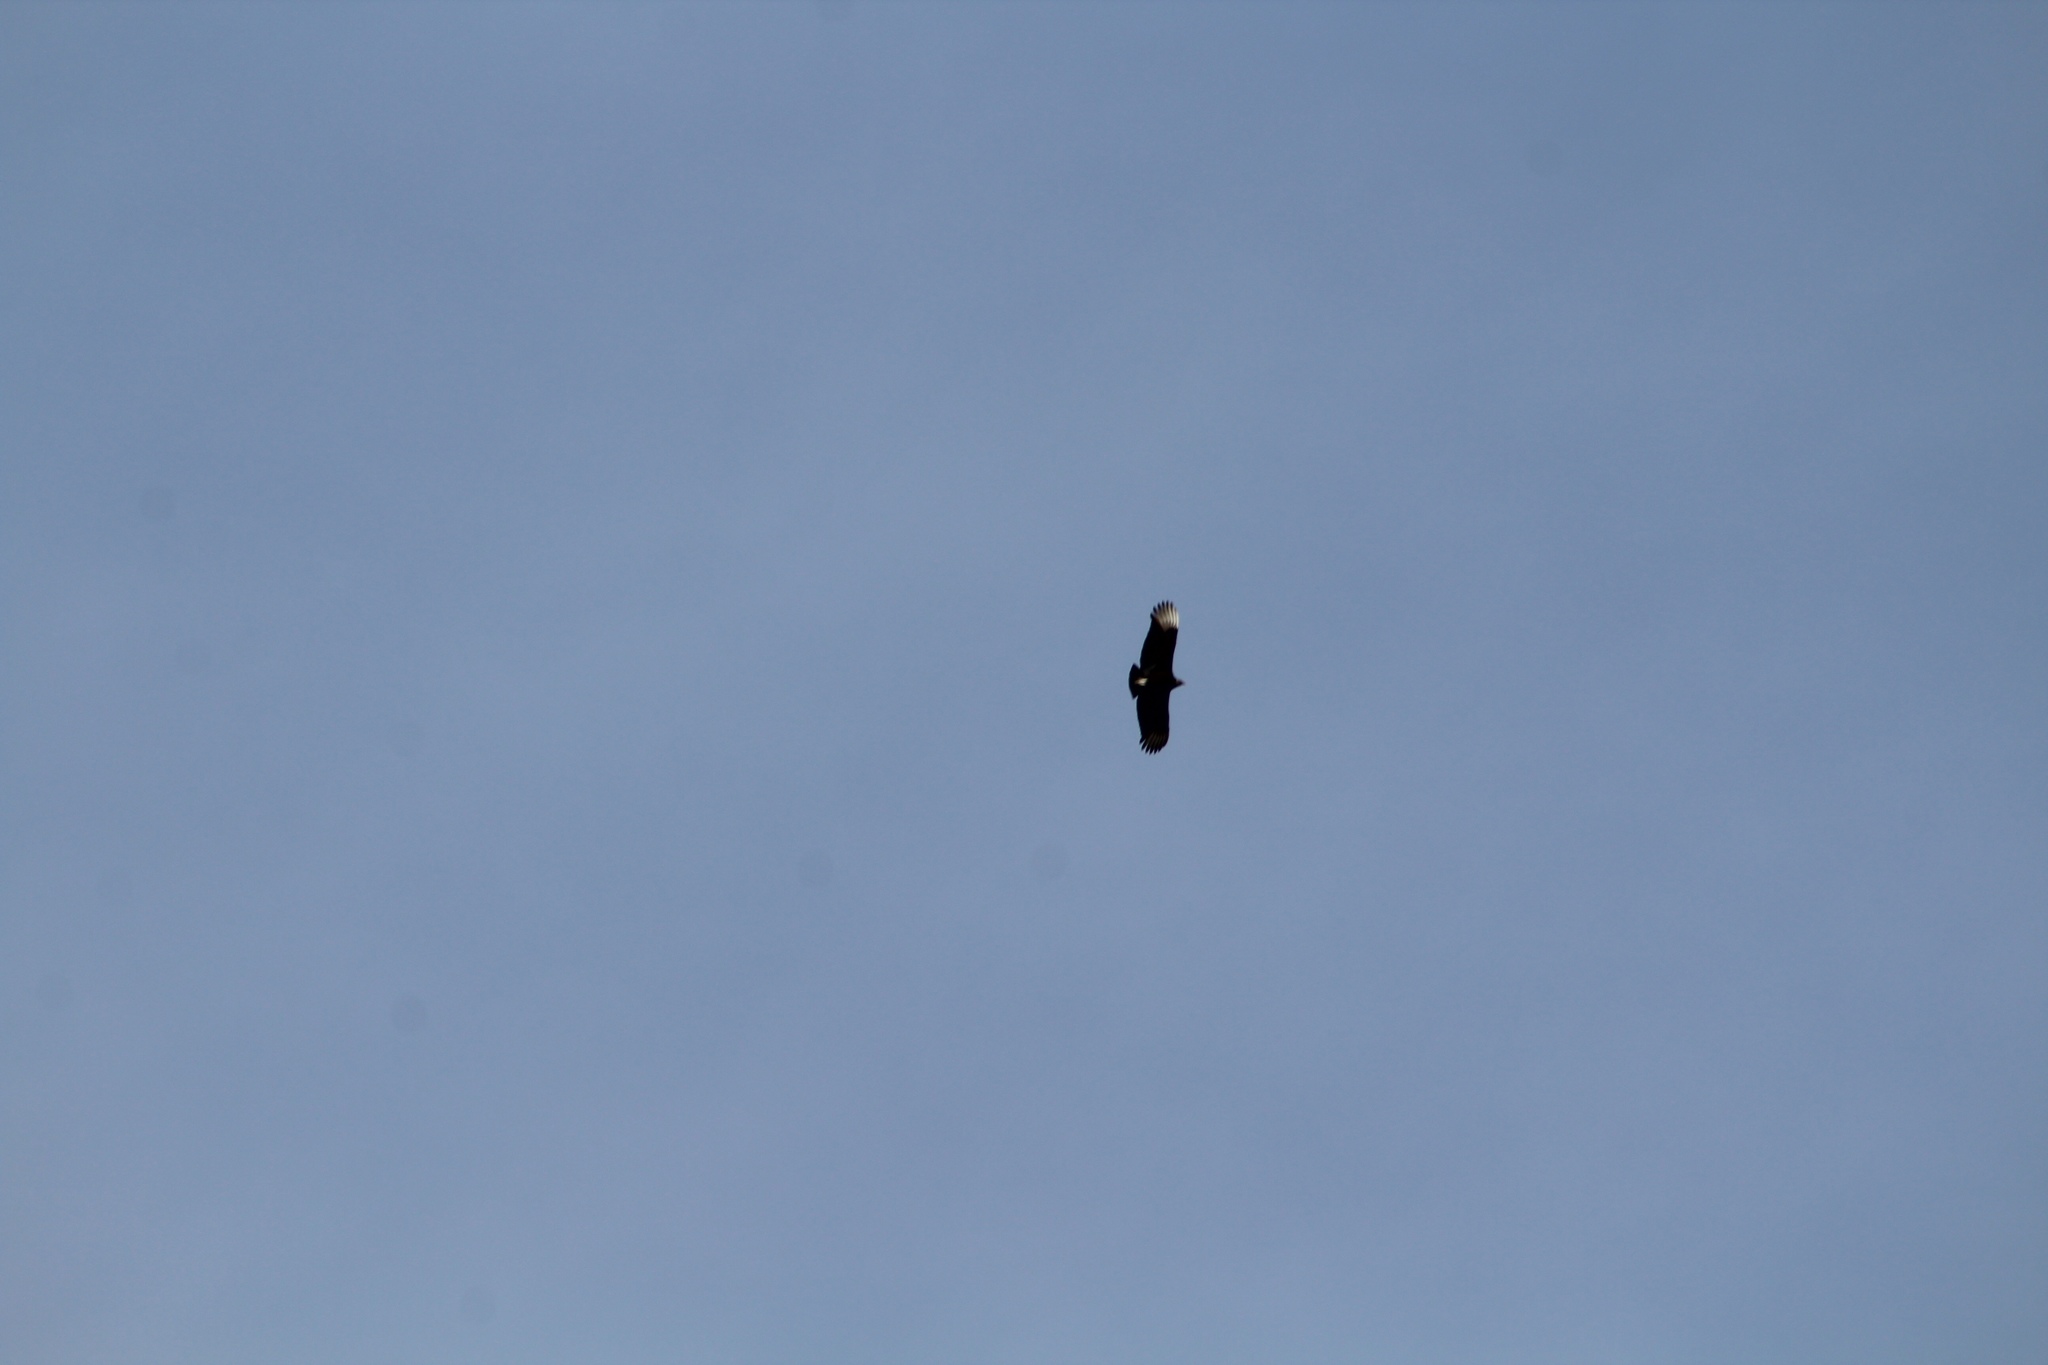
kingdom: Animalia
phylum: Chordata
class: Aves
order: Accipitriformes
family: Cathartidae
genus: Coragyps
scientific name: Coragyps atratus
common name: Black vulture
